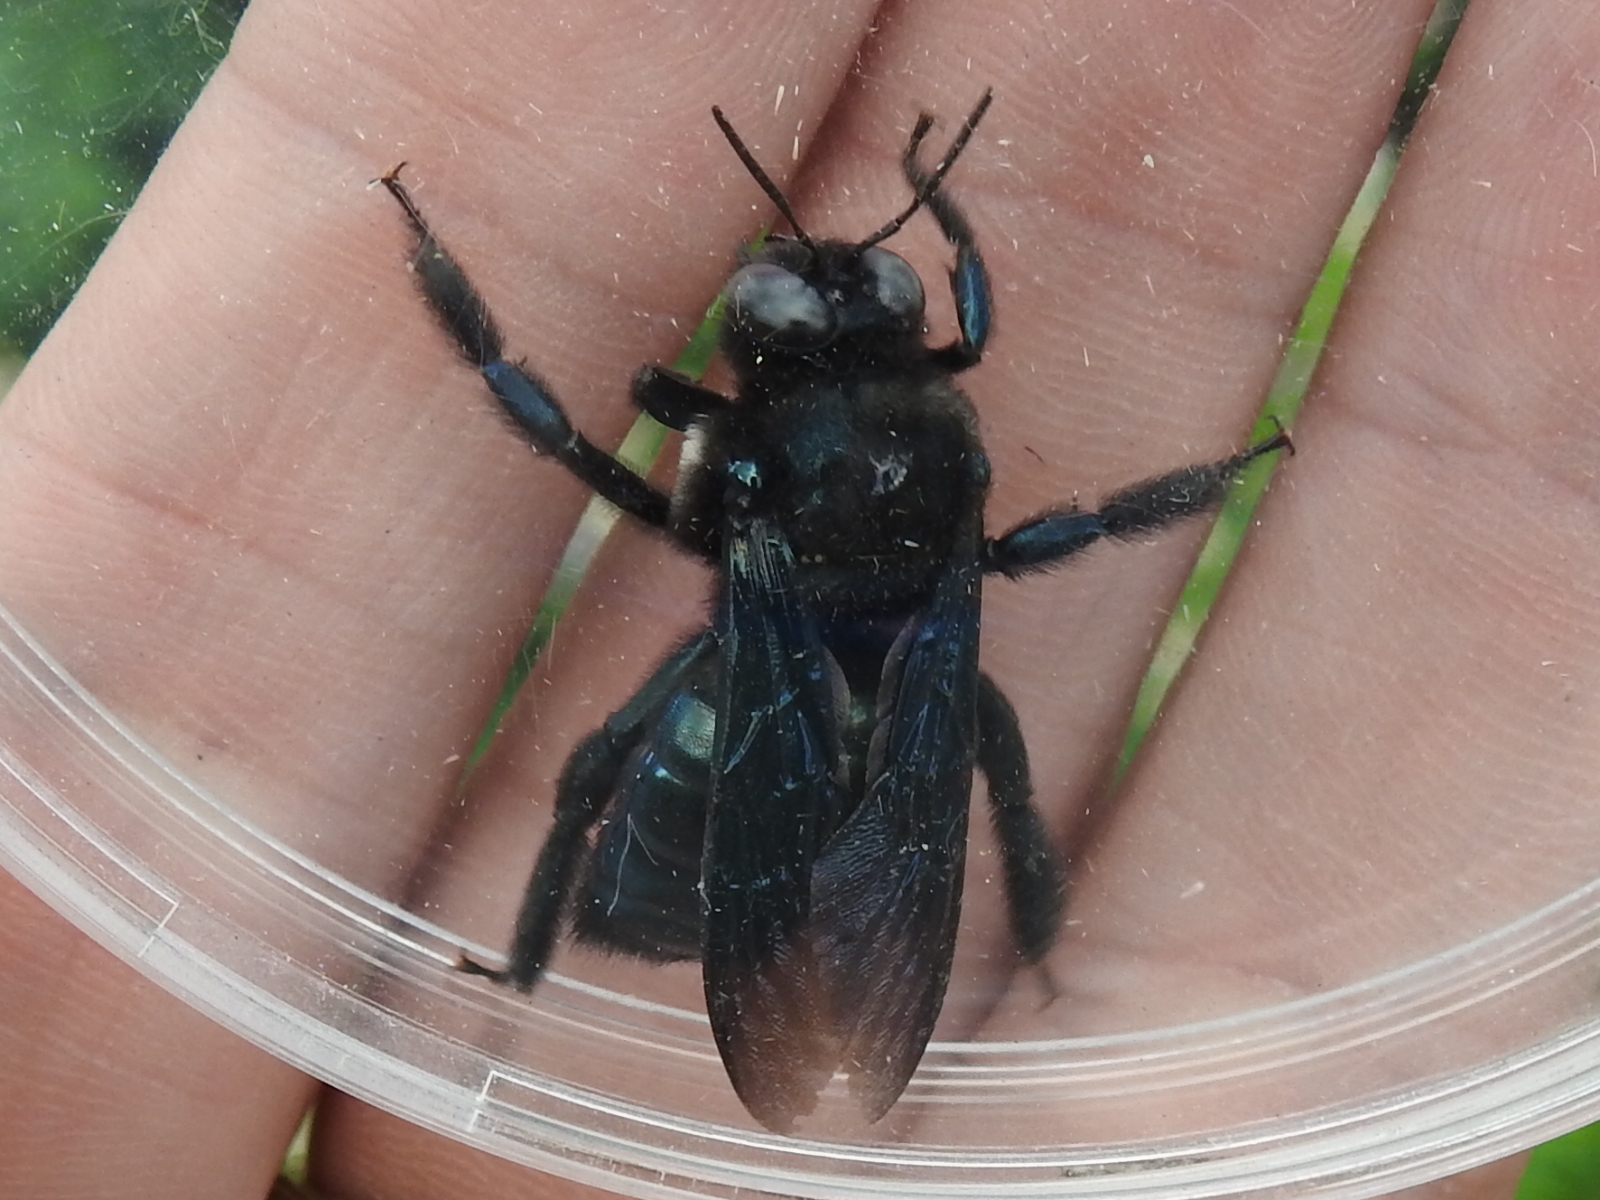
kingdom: Animalia
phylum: Arthropoda
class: Insecta
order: Hymenoptera
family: Apidae
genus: Xylocopa
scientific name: Xylocopa californica
